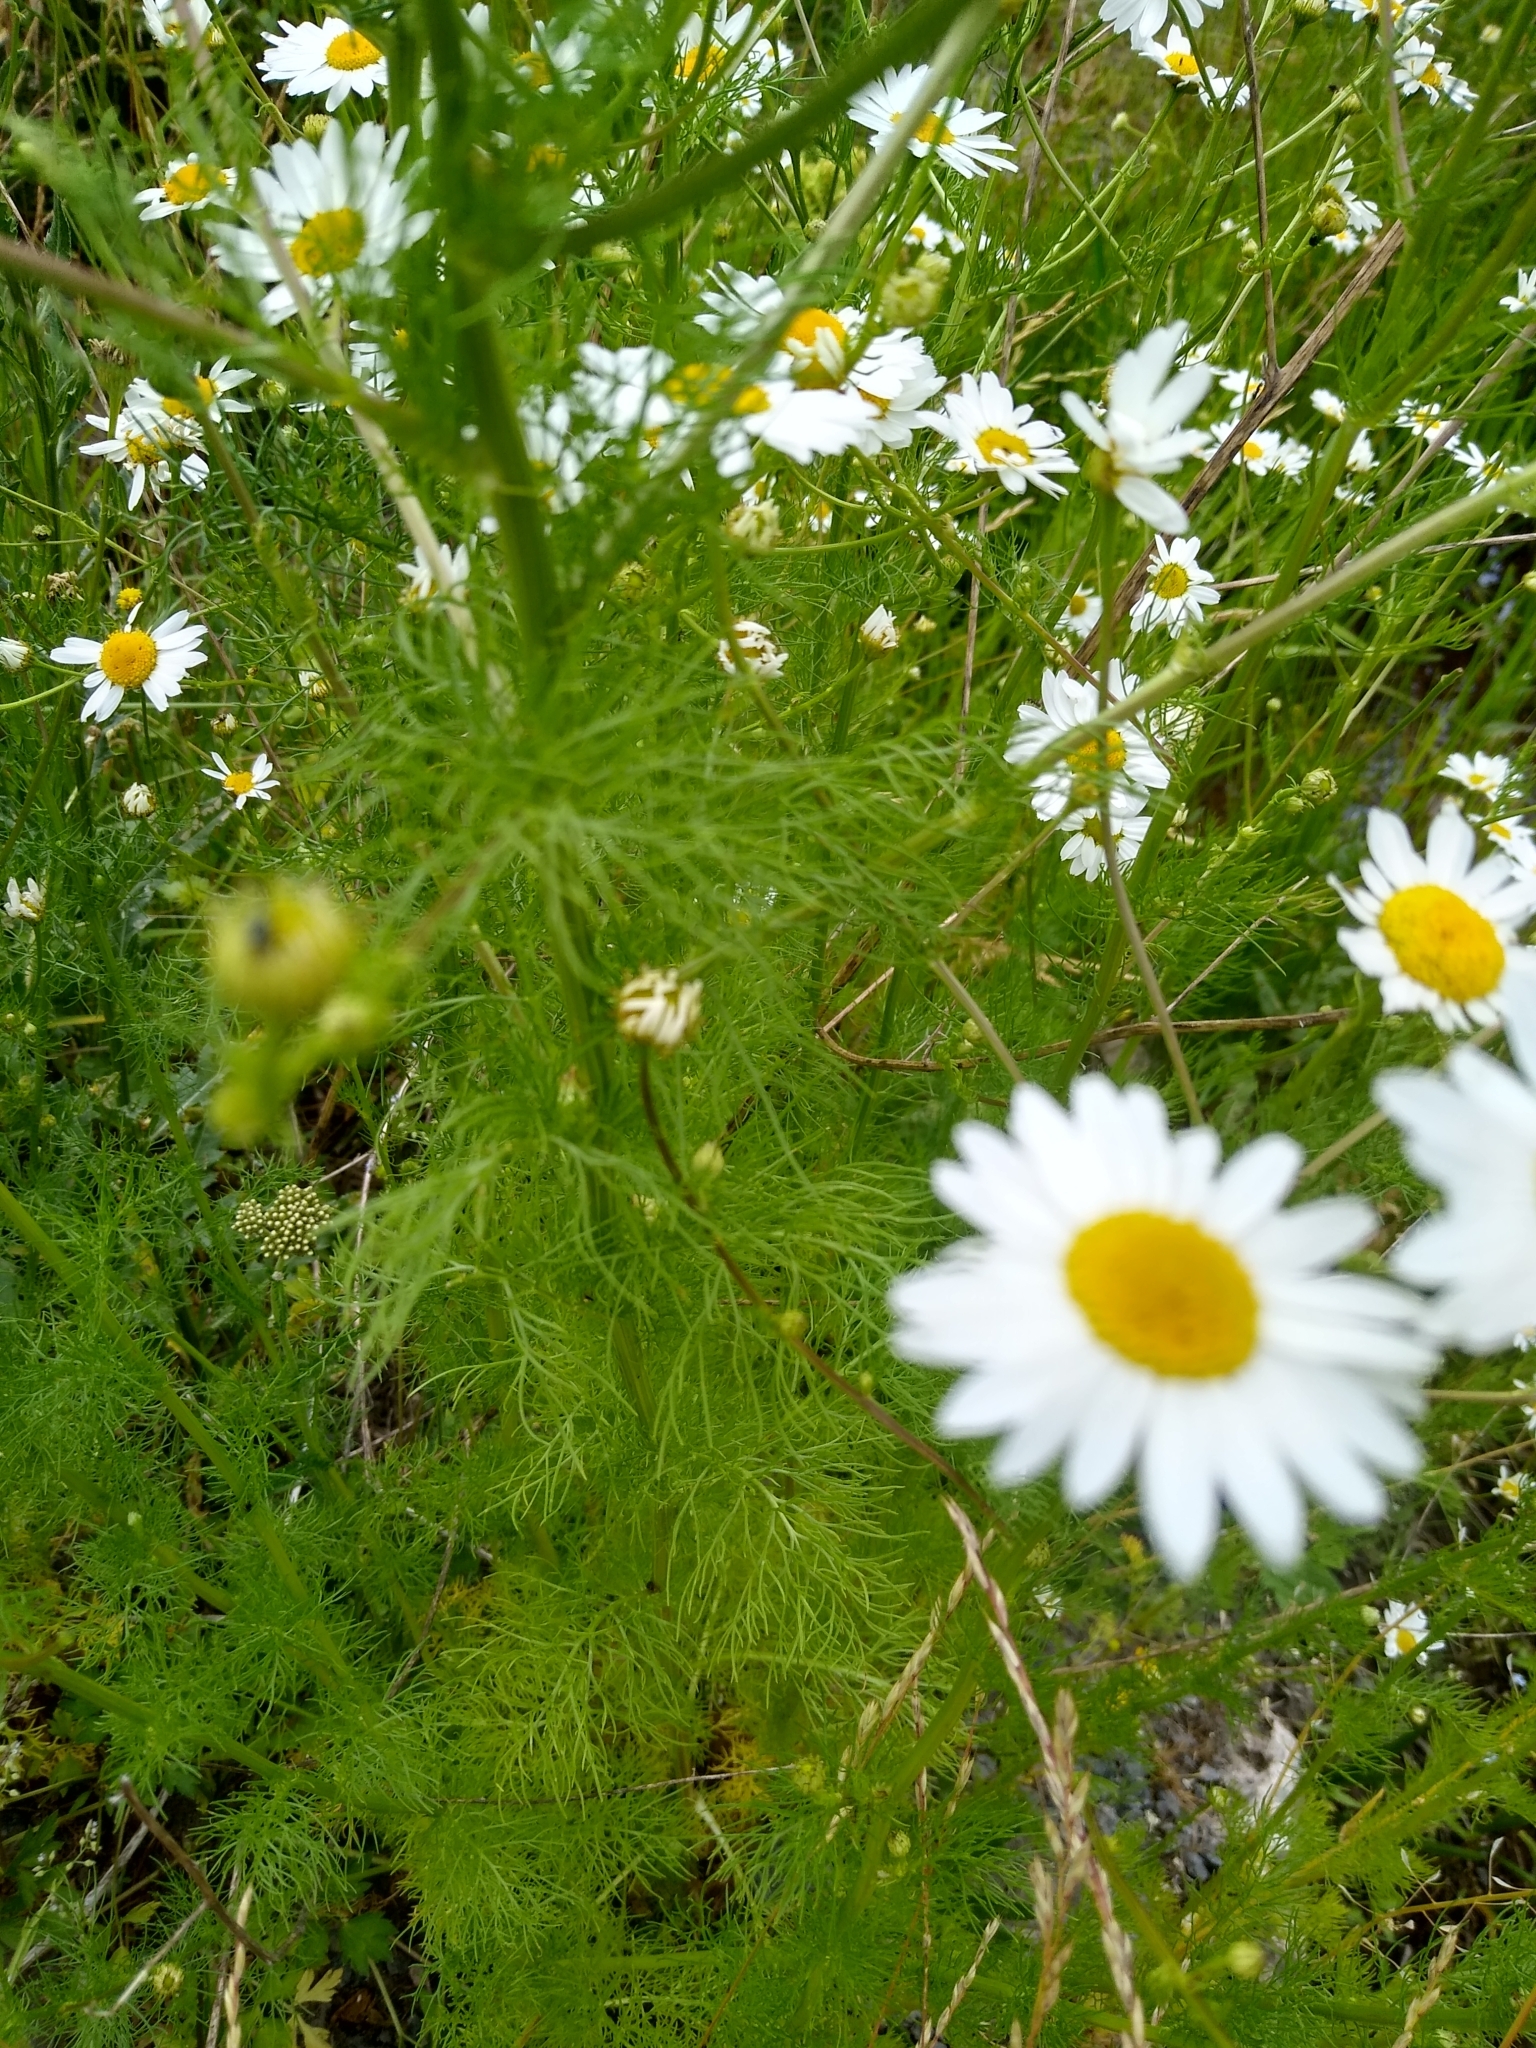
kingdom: Plantae
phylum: Tracheophyta
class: Magnoliopsida
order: Asterales
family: Asteraceae
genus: Tripleurospermum
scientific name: Tripleurospermum inodorum
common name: Scentless mayweed
